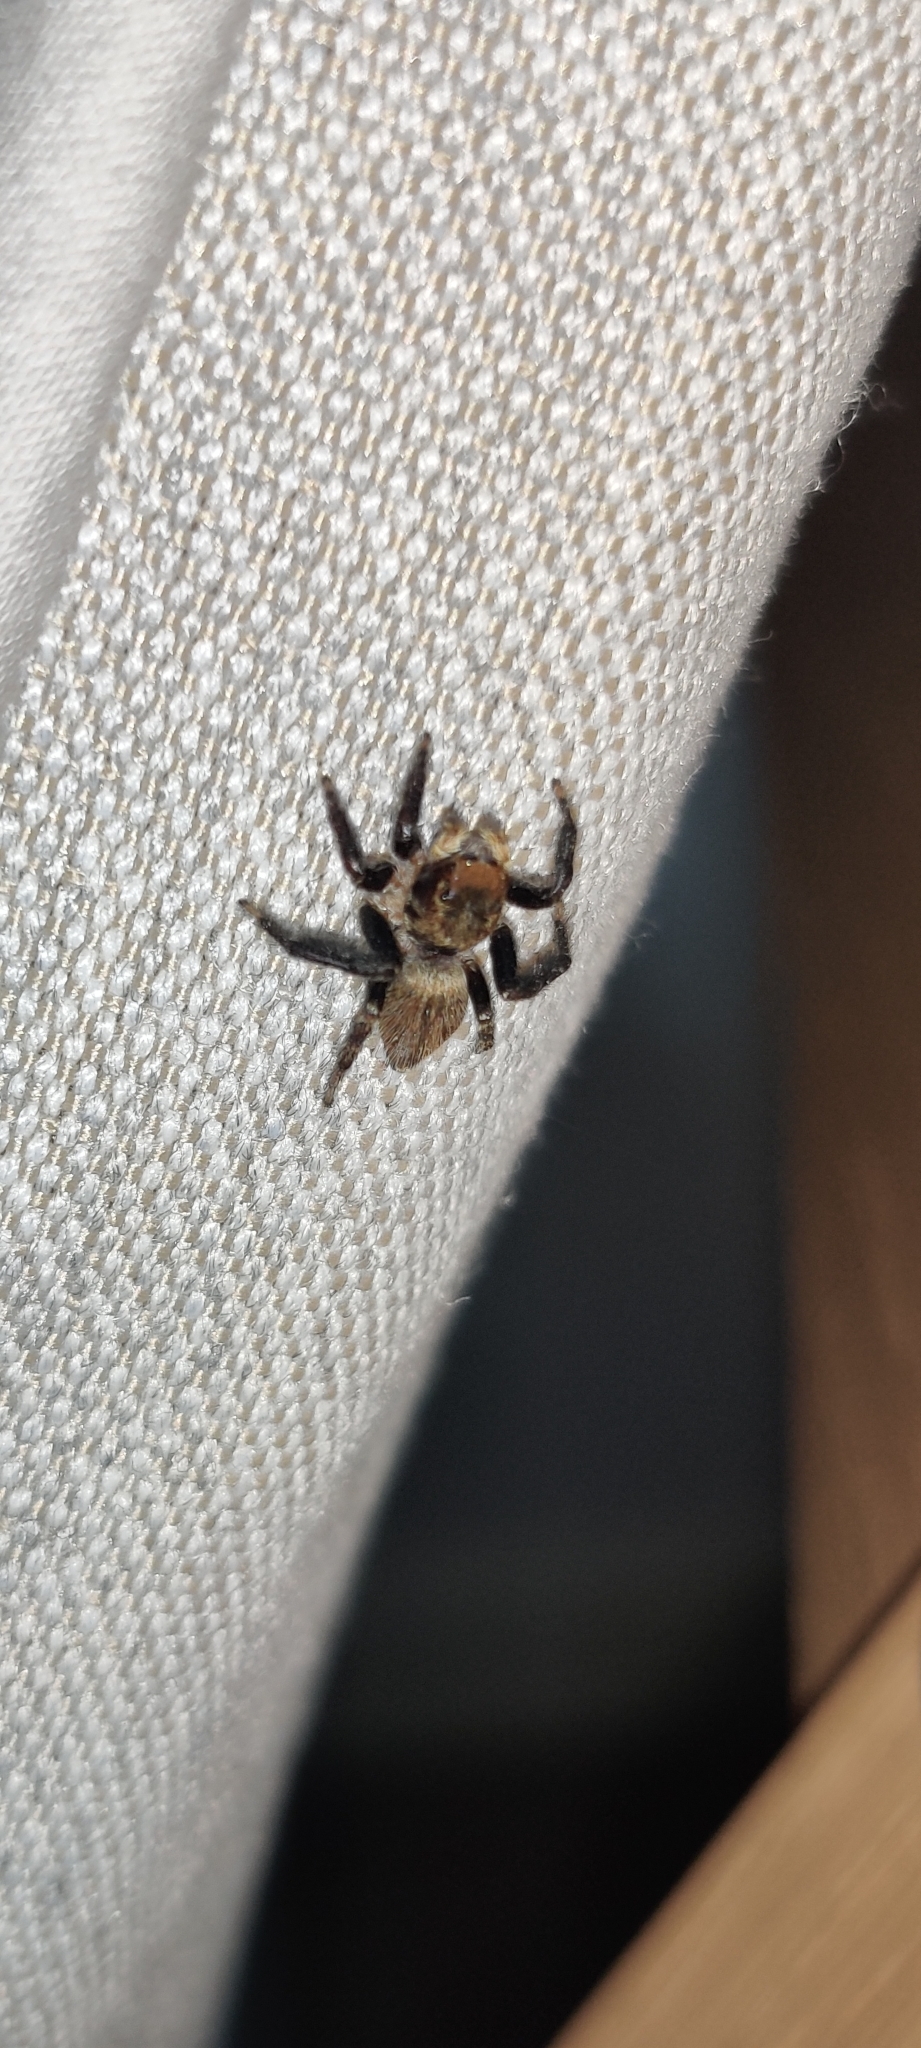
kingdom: Animalia
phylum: Arthropoda
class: Arachnida
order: Araneae
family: Salticidae
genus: Maratus
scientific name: Maratus griseus
